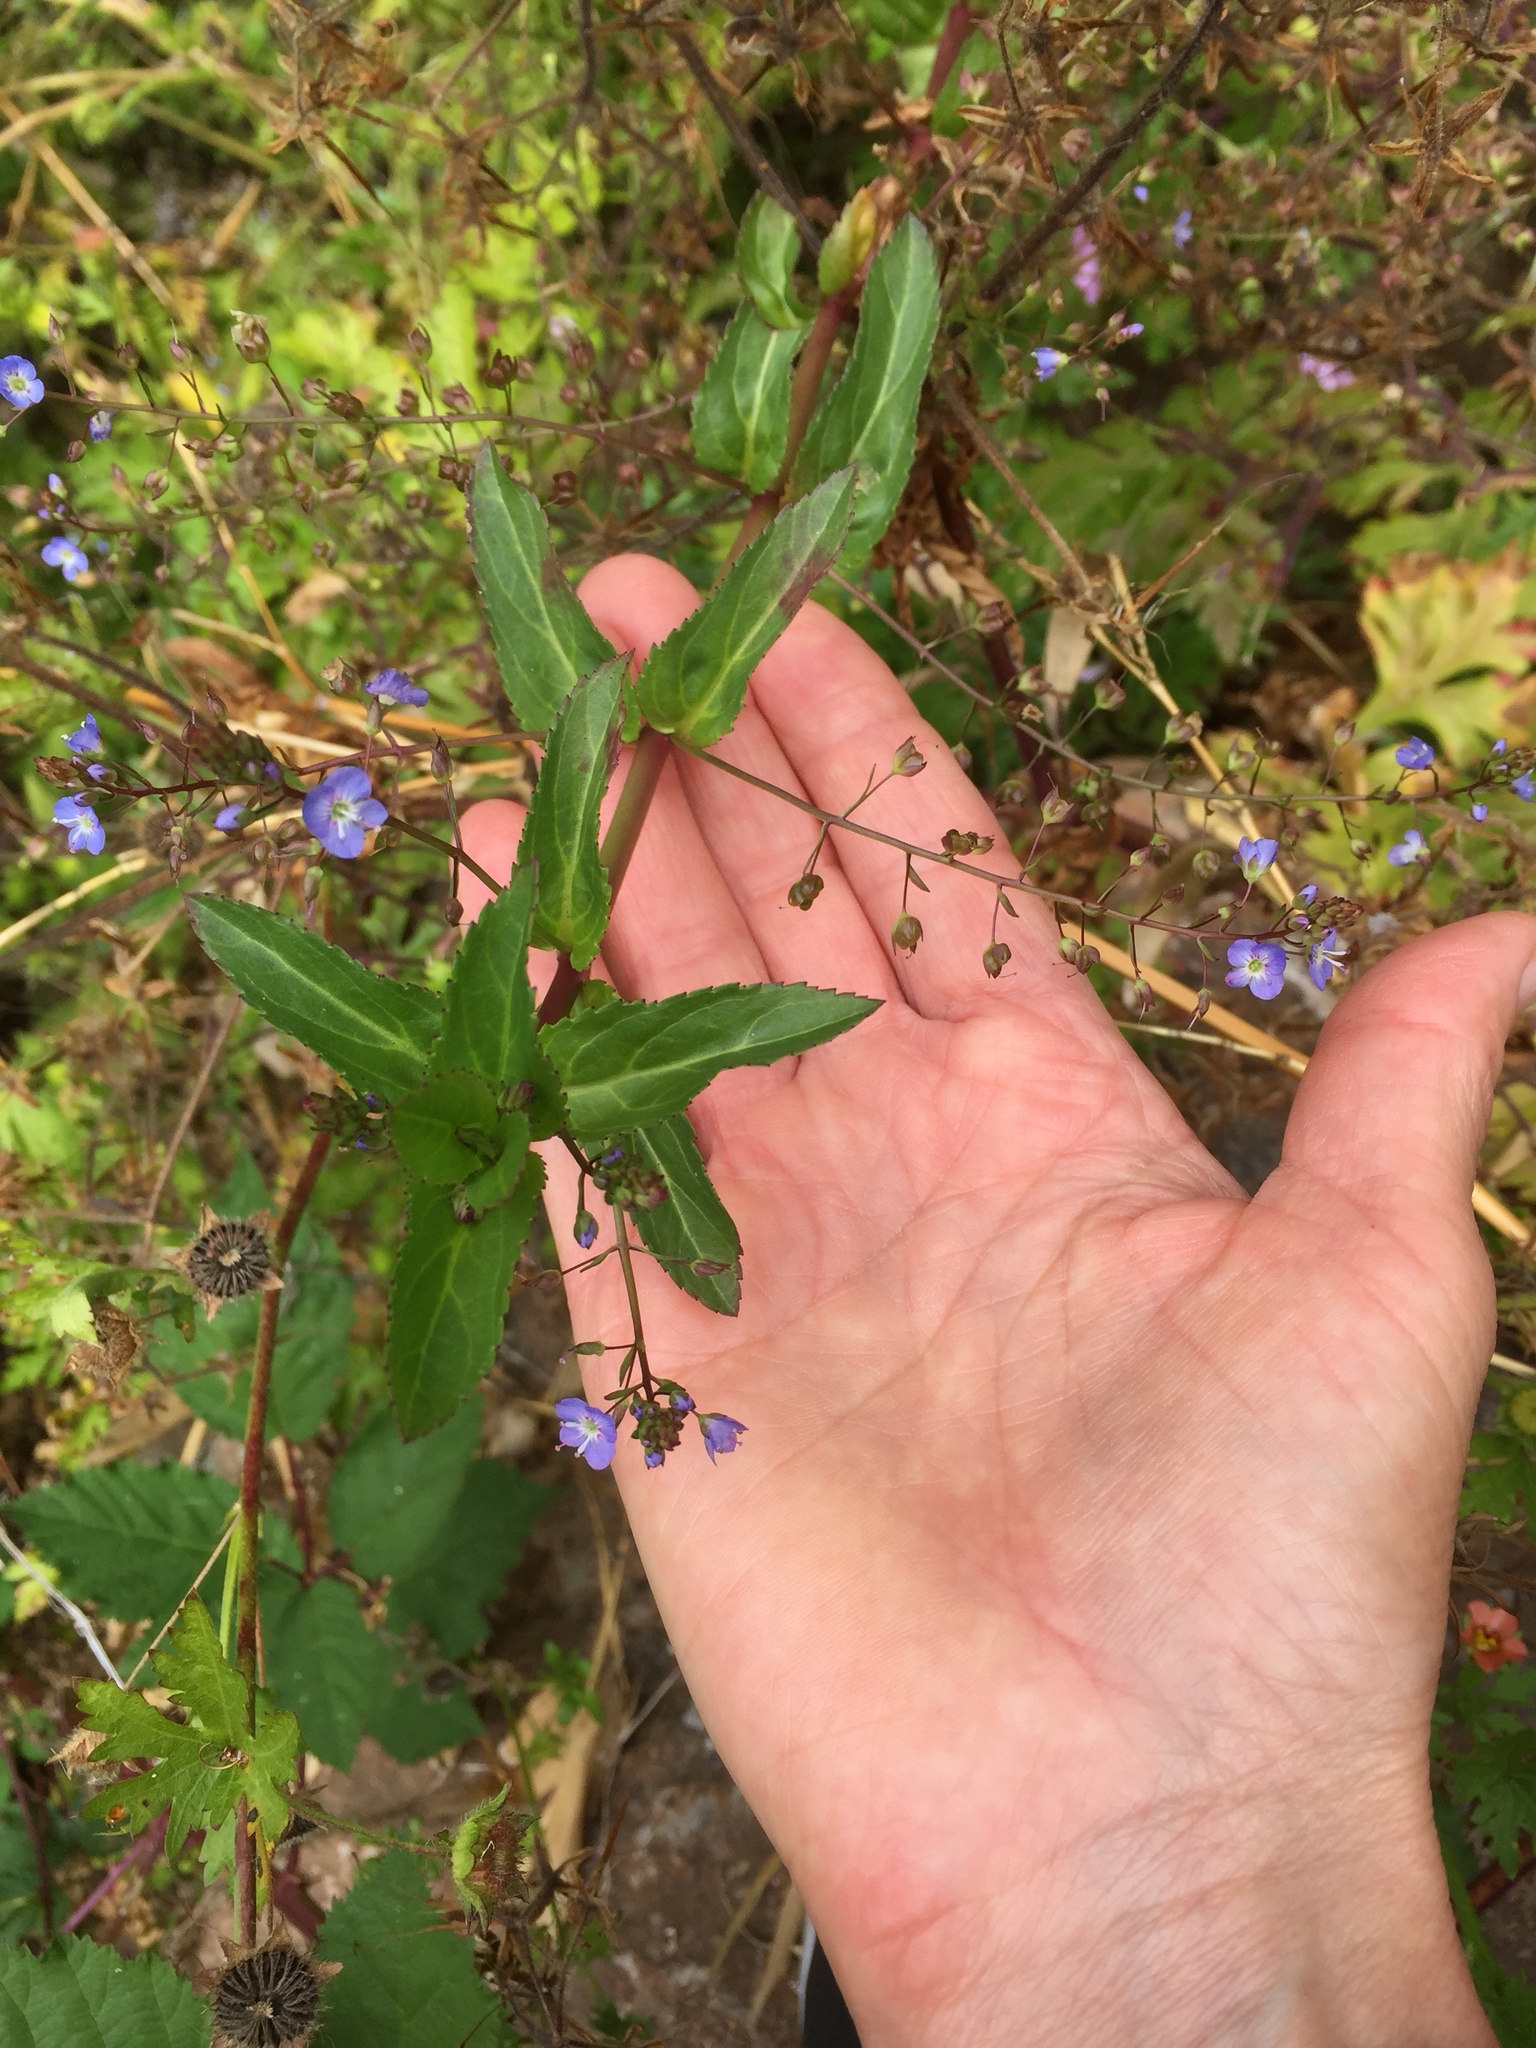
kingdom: Plantae
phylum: Tracheophyta
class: Magnoliopsida
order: Lamiales
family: Plantaginaceae
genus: Veronica
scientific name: Veronica americana
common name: American brooklime
